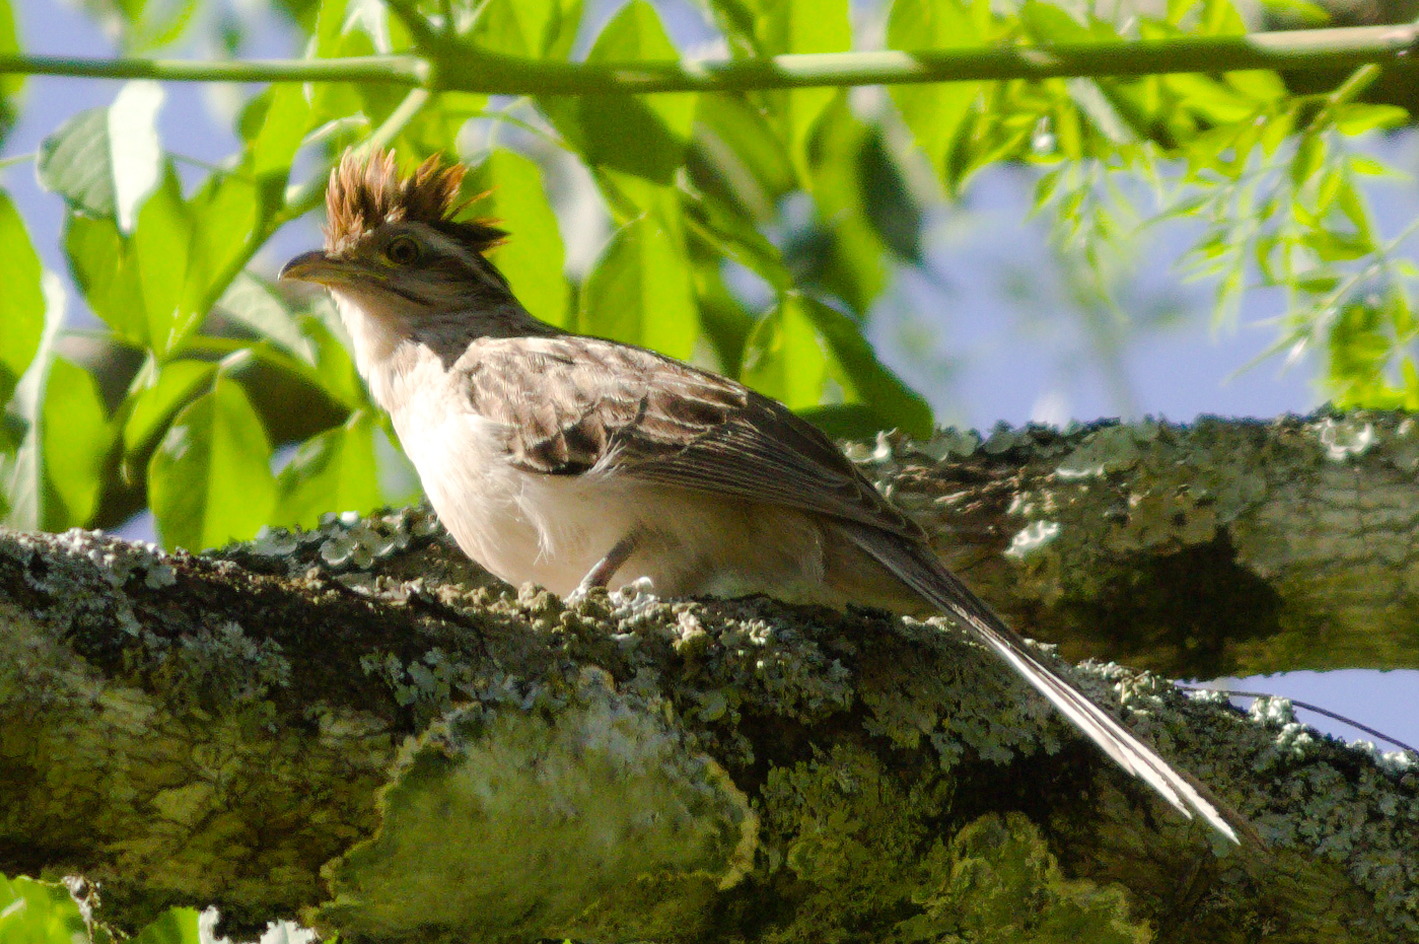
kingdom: Animalia
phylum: Chordata
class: Aves
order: Cuculiformes
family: Cuculidae
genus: Tapera
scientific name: Tapera naevia
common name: Striped cuckoo
